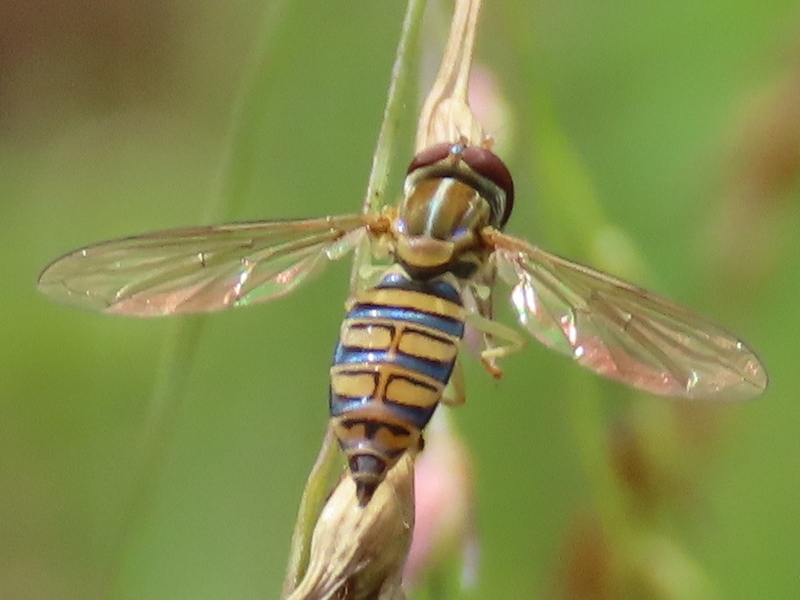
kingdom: Animalia
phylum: Arthropoda
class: Insecta
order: Diptera
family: Syrphidae
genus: Toxomerus
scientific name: Toxomerus politus
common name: Maize calligrapher
